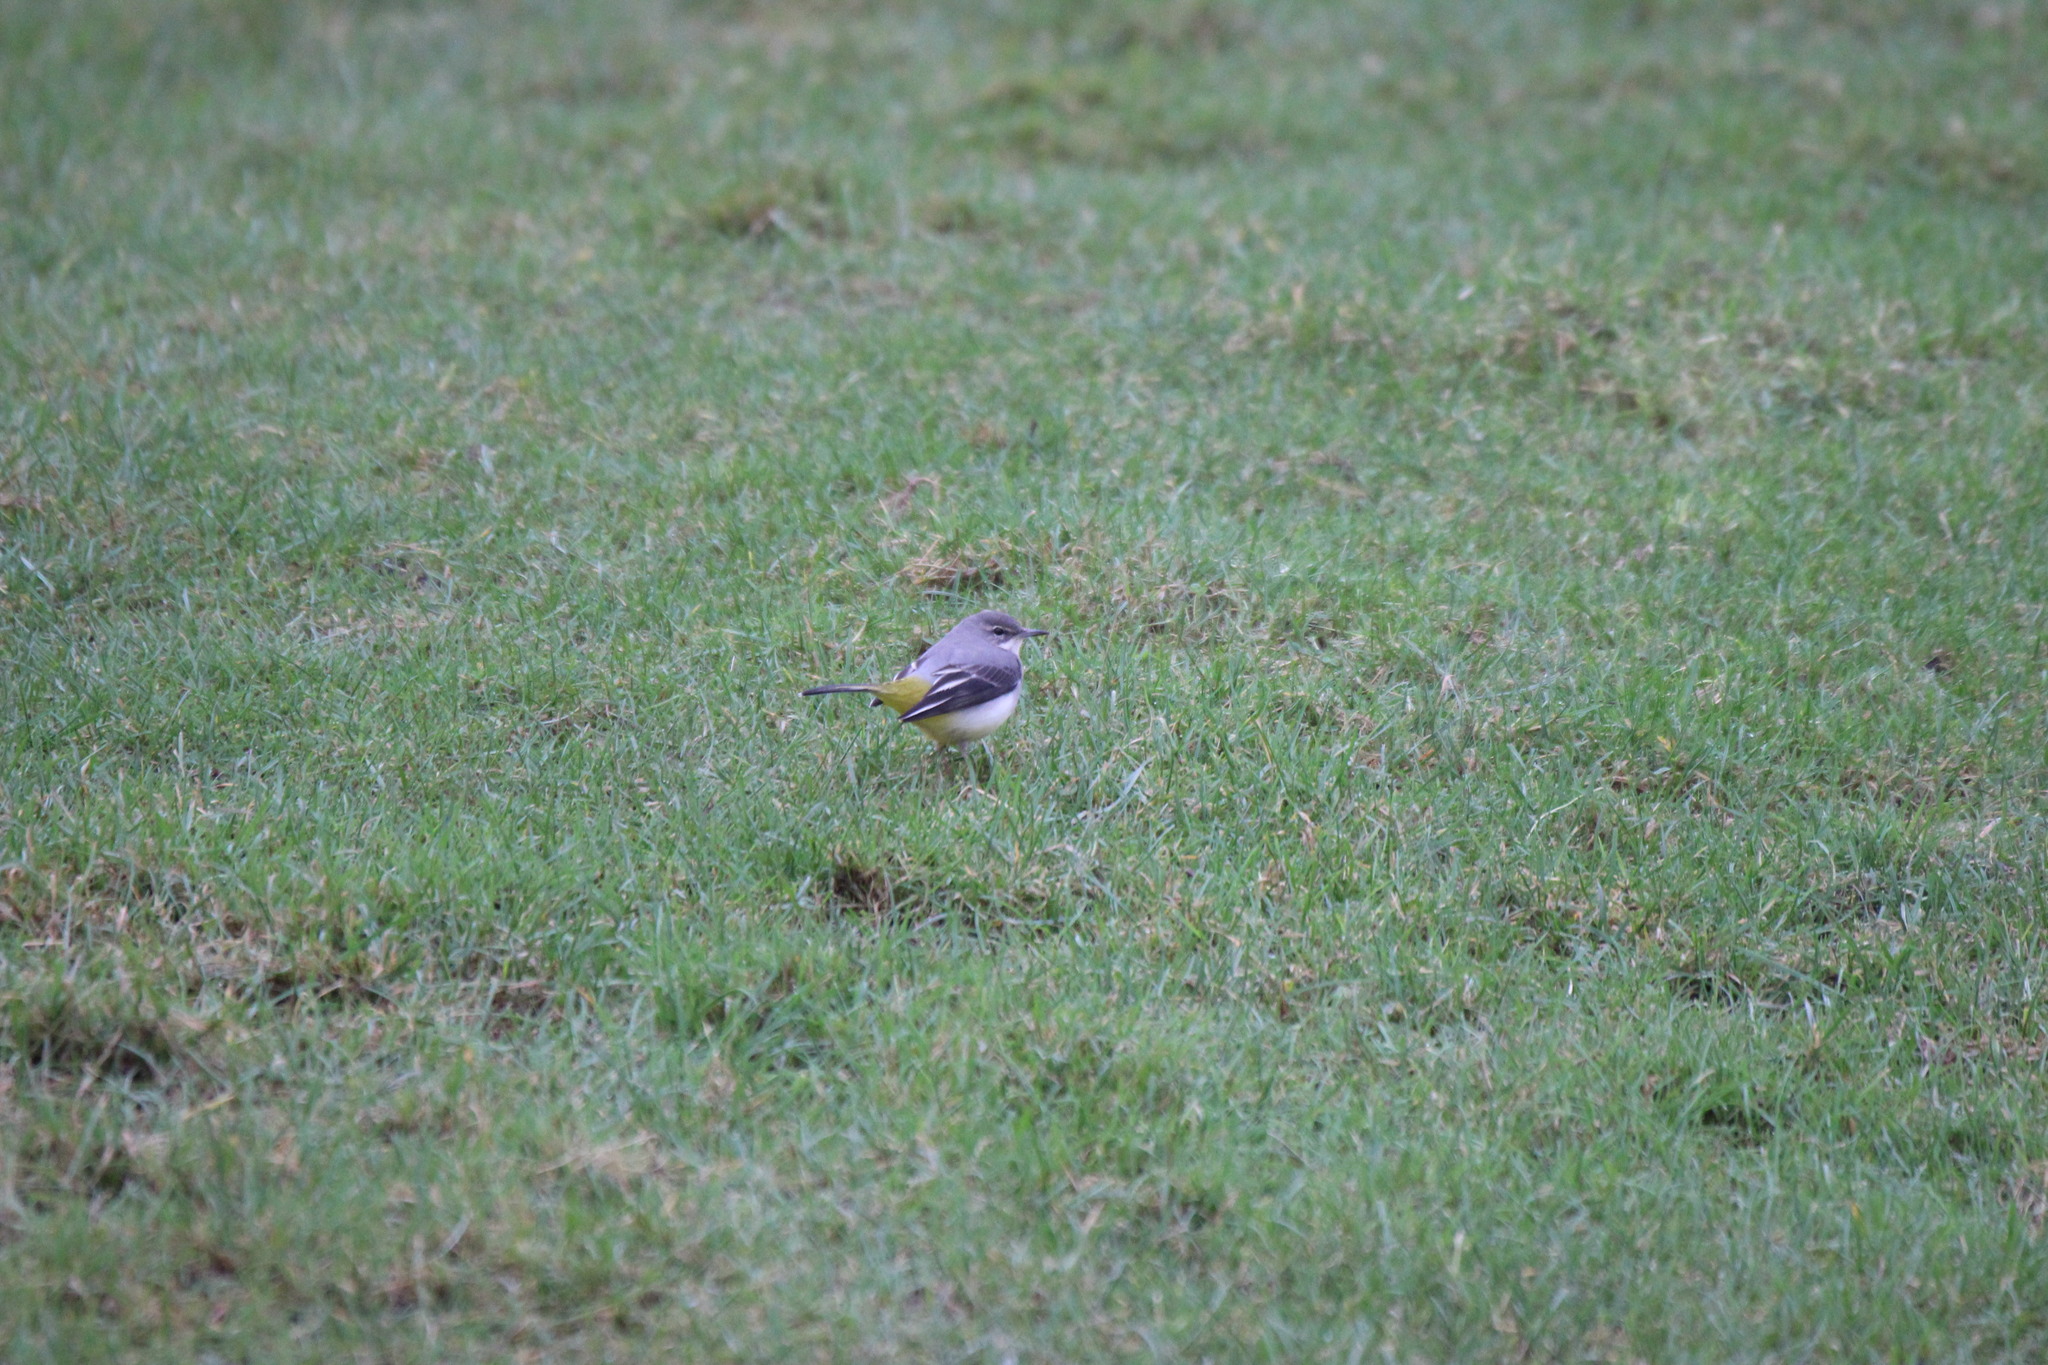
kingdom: Animalia
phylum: Chordata
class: Aves
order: Passeriformes
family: Motacillidae
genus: Motacilla
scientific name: Motacilla cinerea
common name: Grey wagtail
